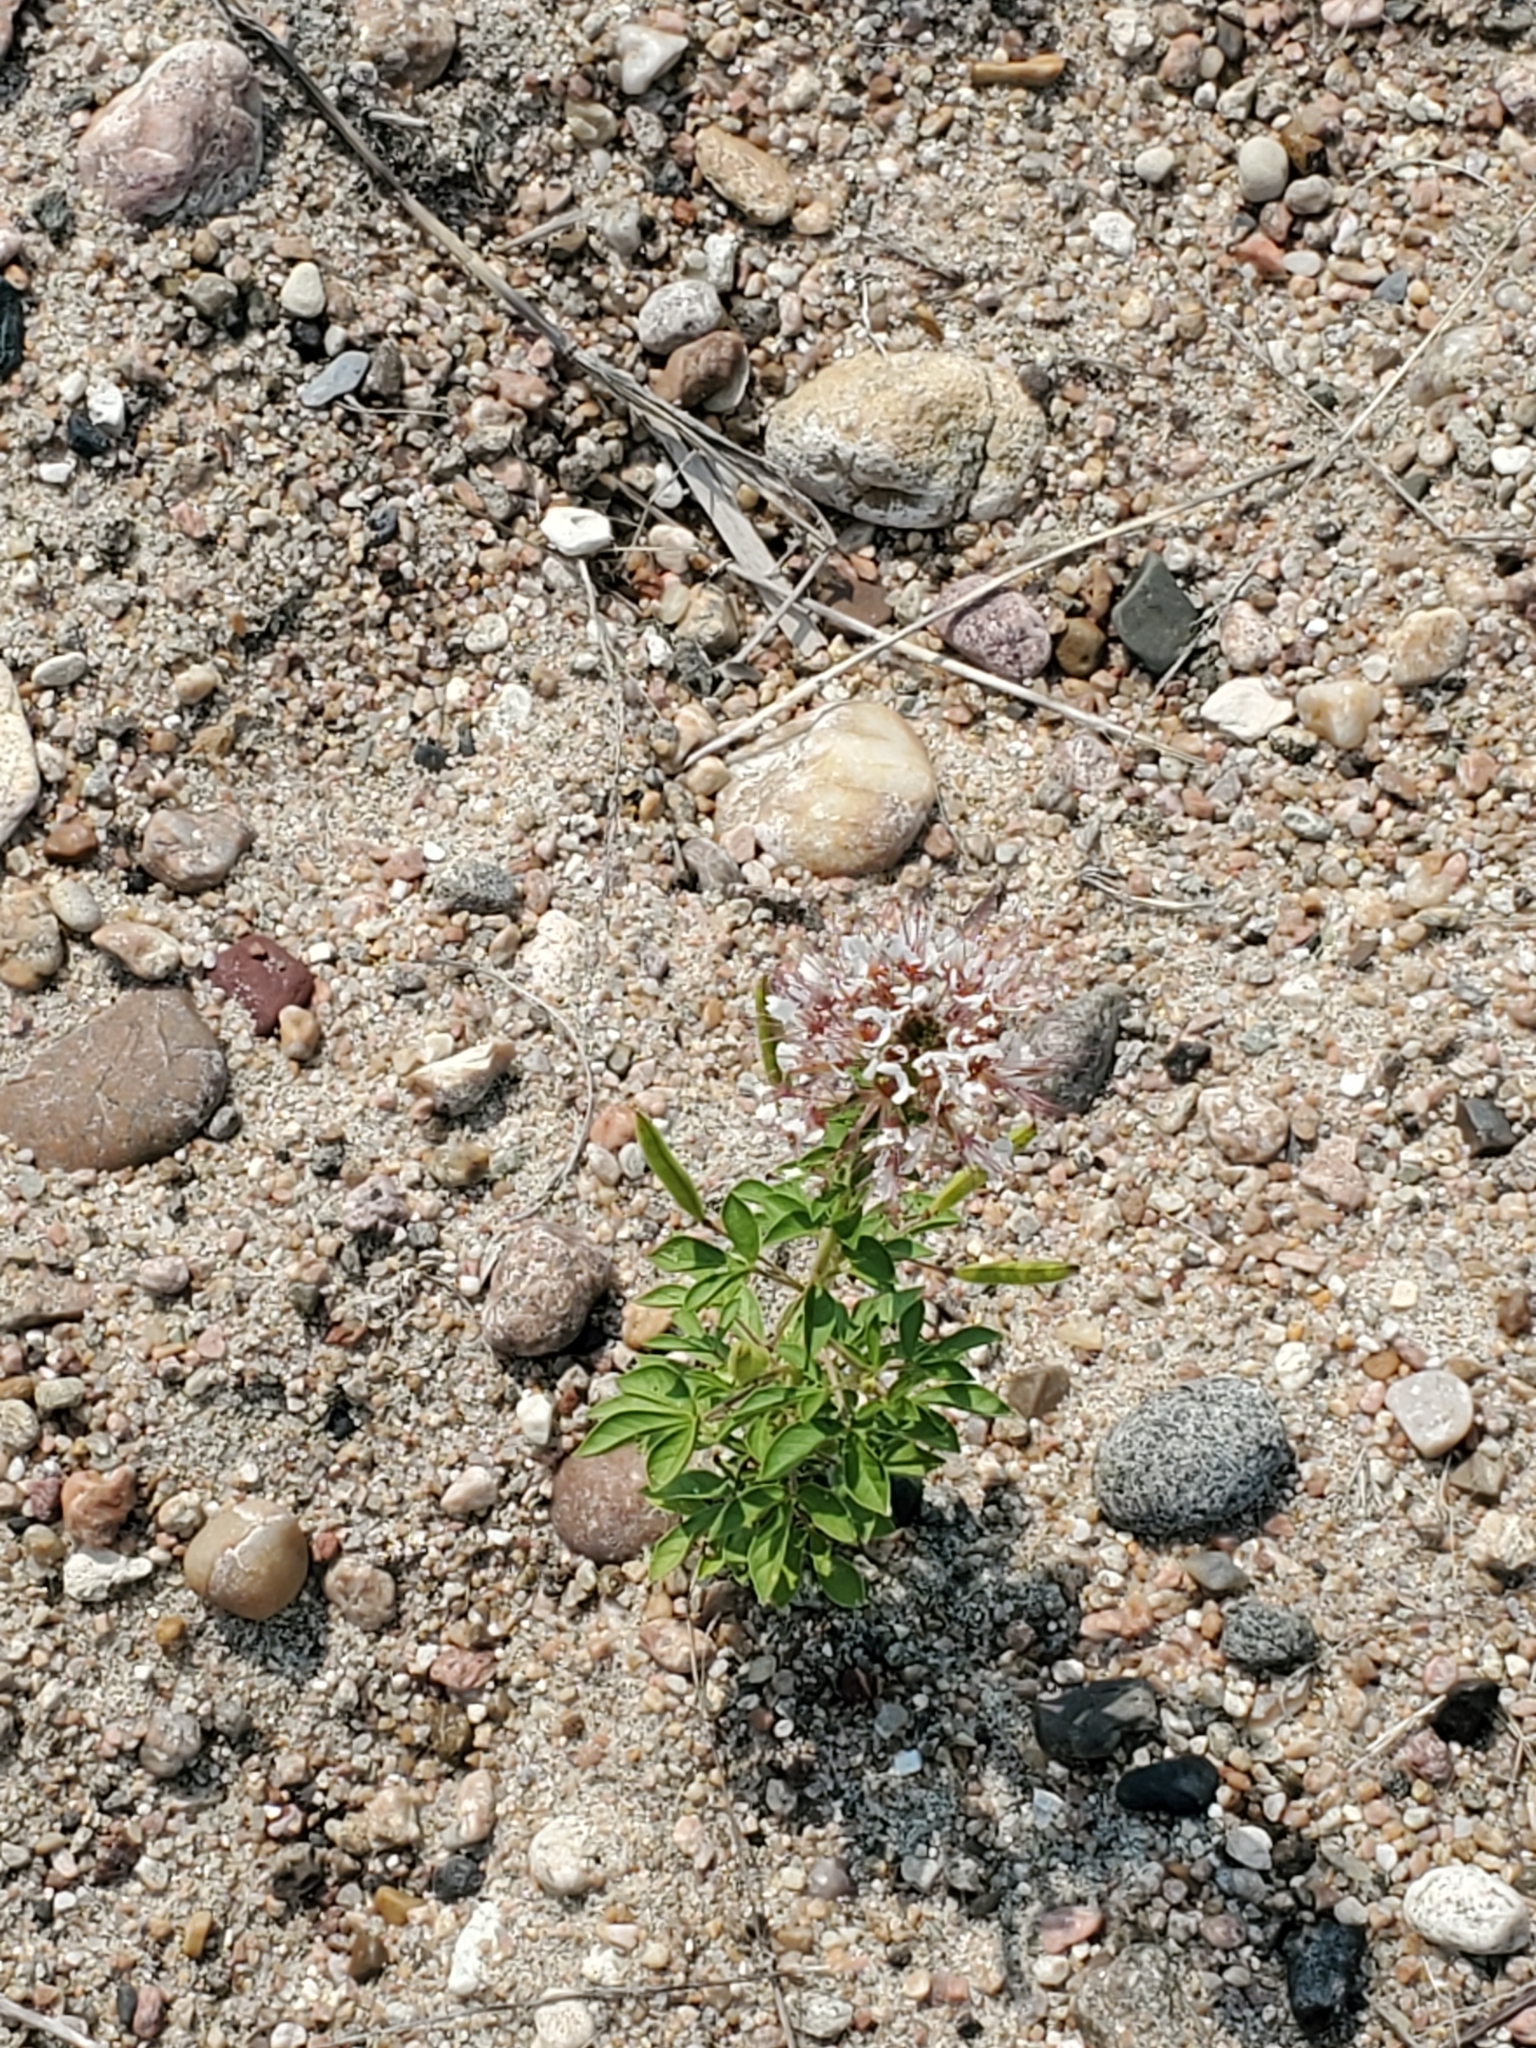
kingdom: Plantae
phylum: Tracheophyta
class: Magnoliopsida
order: Brassicales
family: Cleomaceae
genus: Polanisia
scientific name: Polanisia trachysperma
